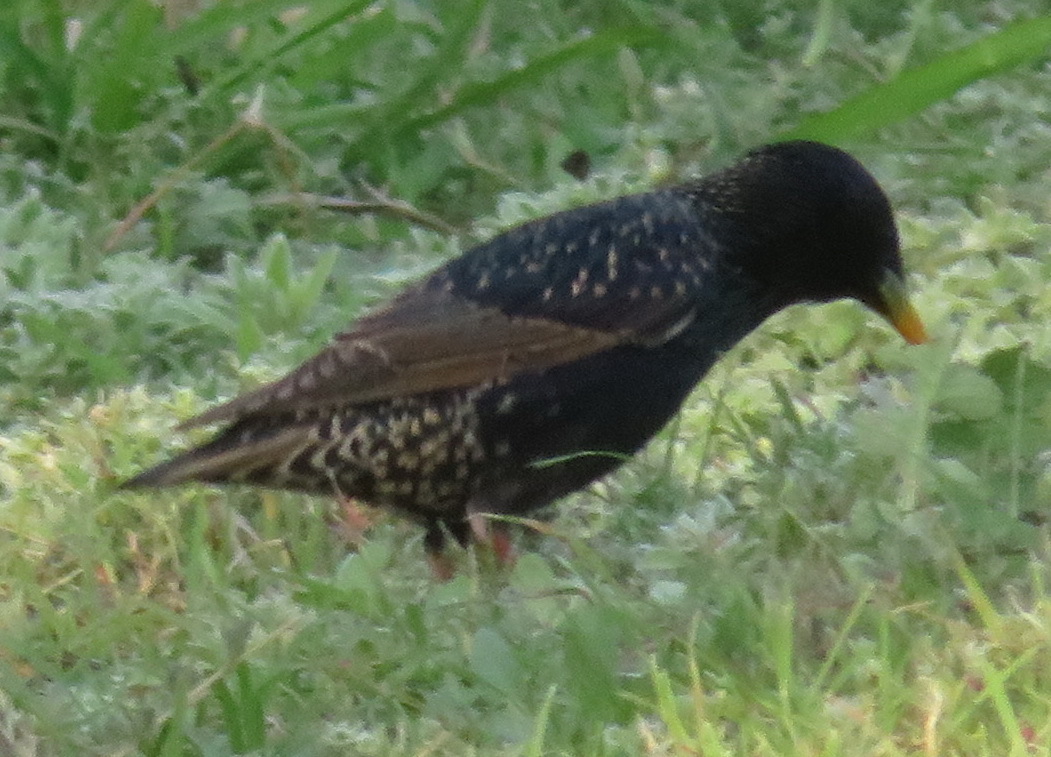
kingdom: Animalia
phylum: Chordata
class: Aves
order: Passeriformes
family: Sturnidae
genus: Sturnus
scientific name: Sturnus vulgaris
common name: Common starling
